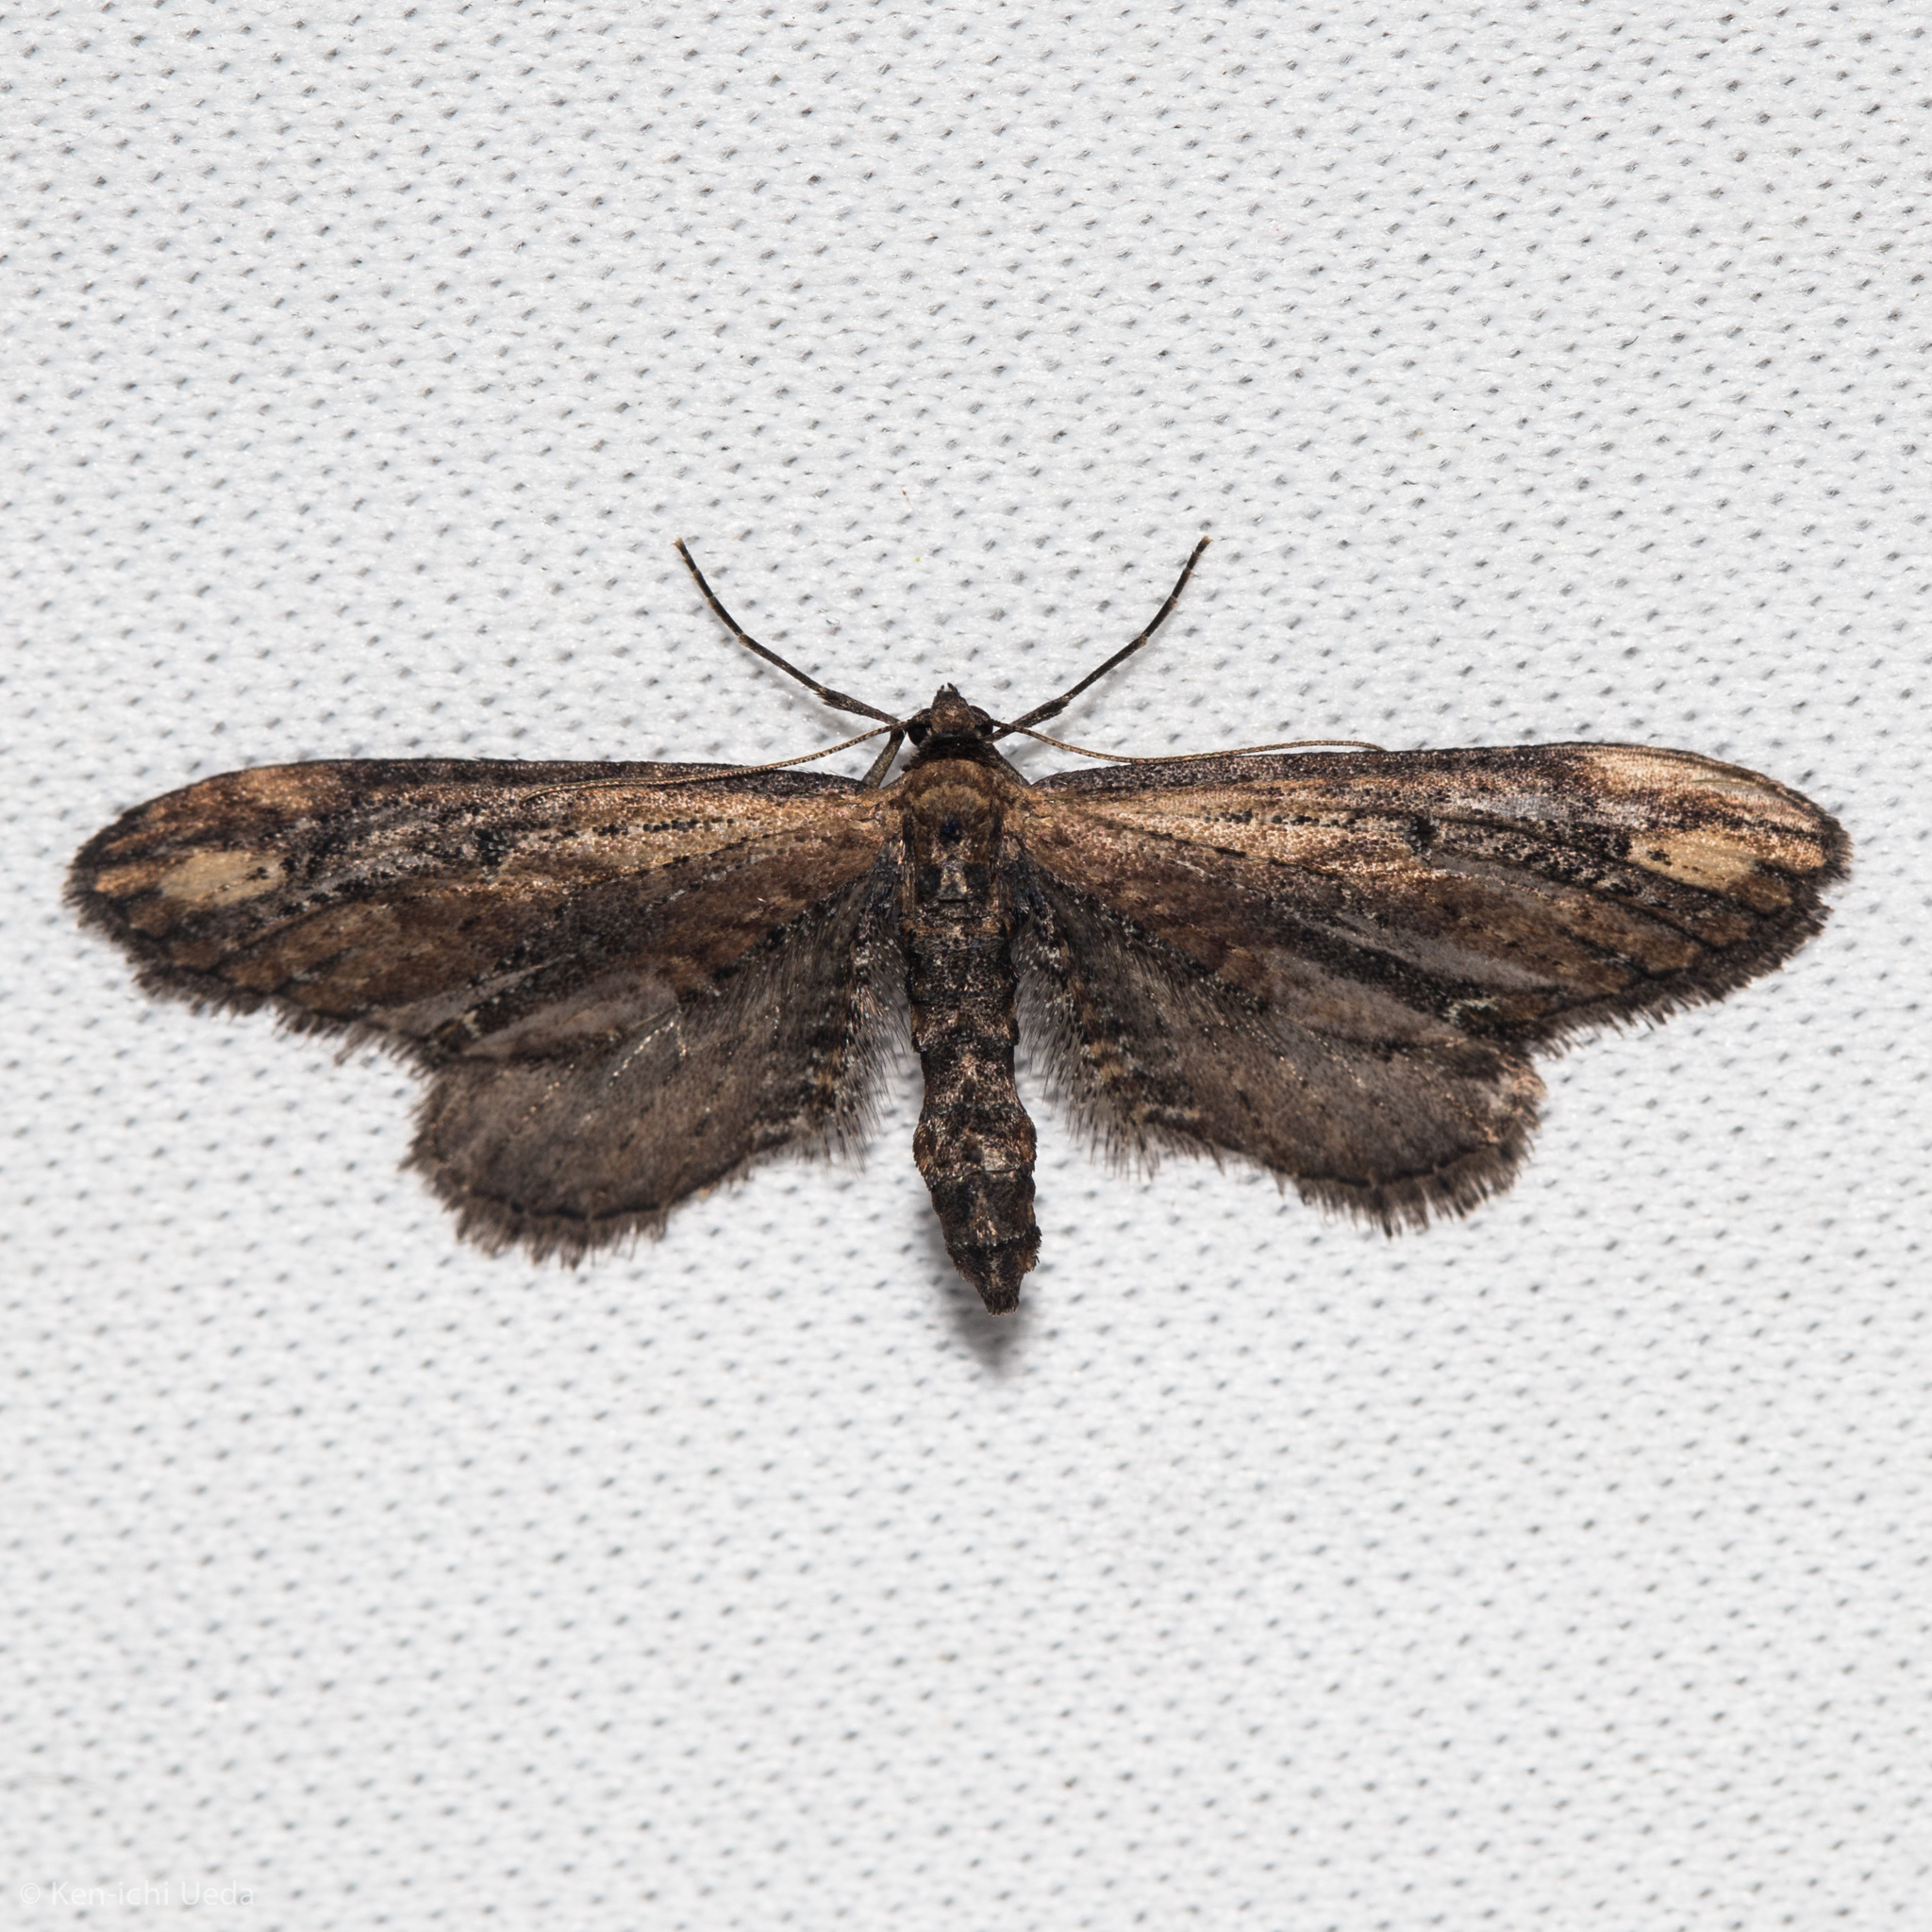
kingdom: Animalia
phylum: Arthropoda
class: Insecta
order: Lepidoptera
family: Geometridae
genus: Eupithecia
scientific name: Eupithecia subapicata
